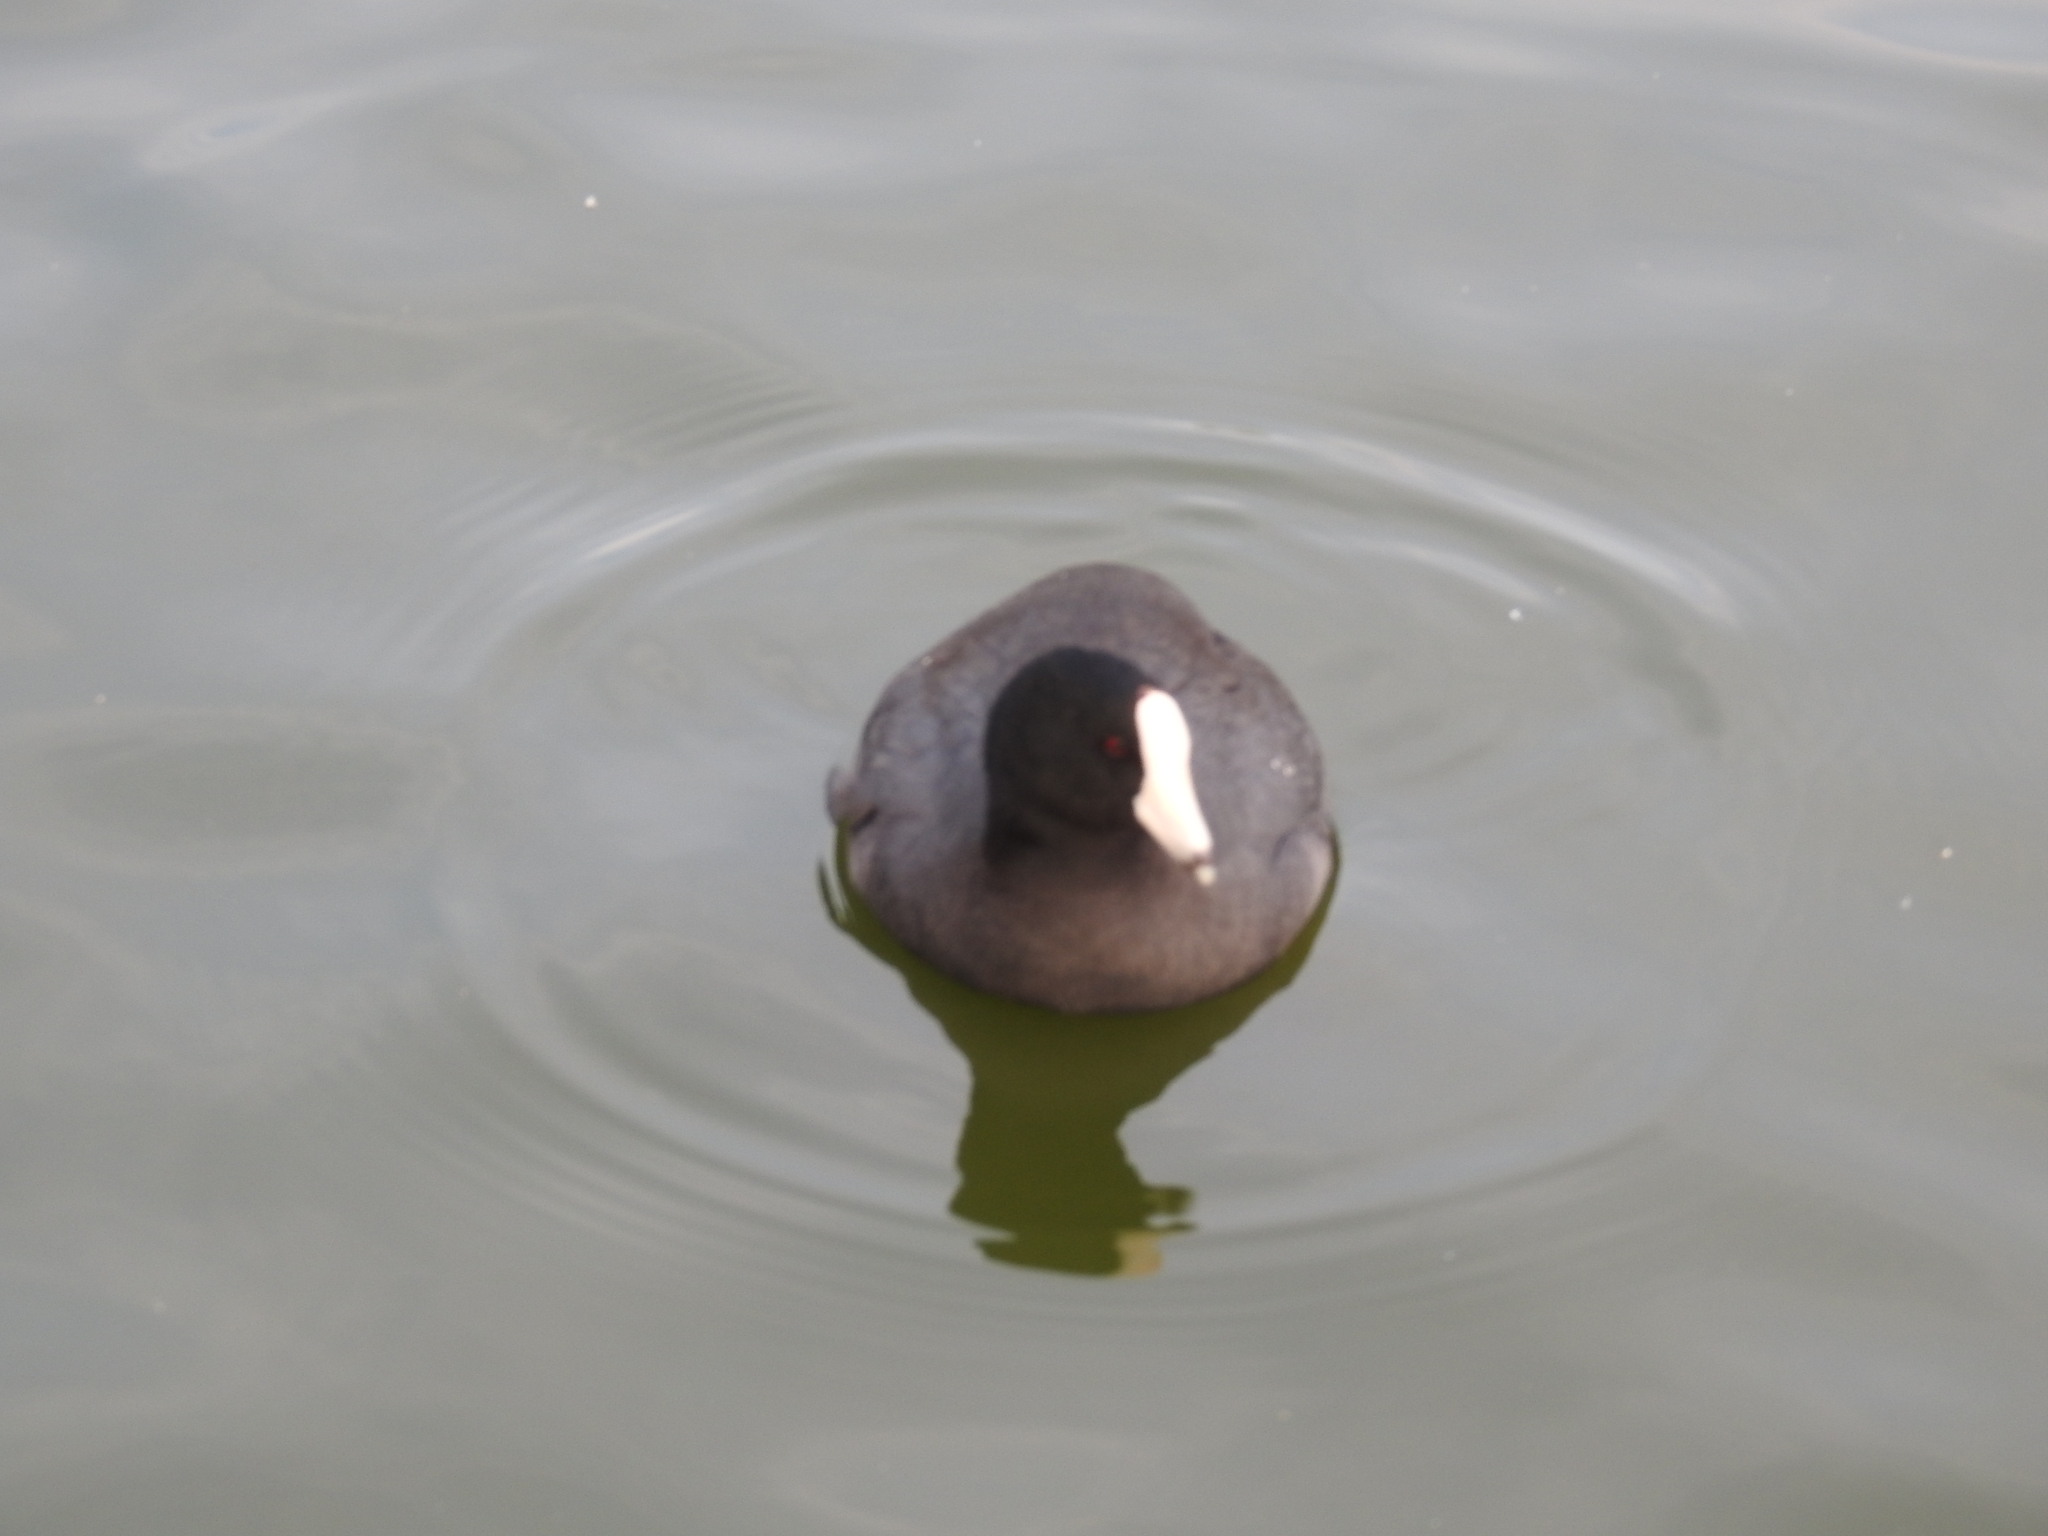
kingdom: Animalia
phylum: Chordata
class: Aves
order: Gruiformes
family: Rallidae
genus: Fulica
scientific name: Fulica americana
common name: American coot
